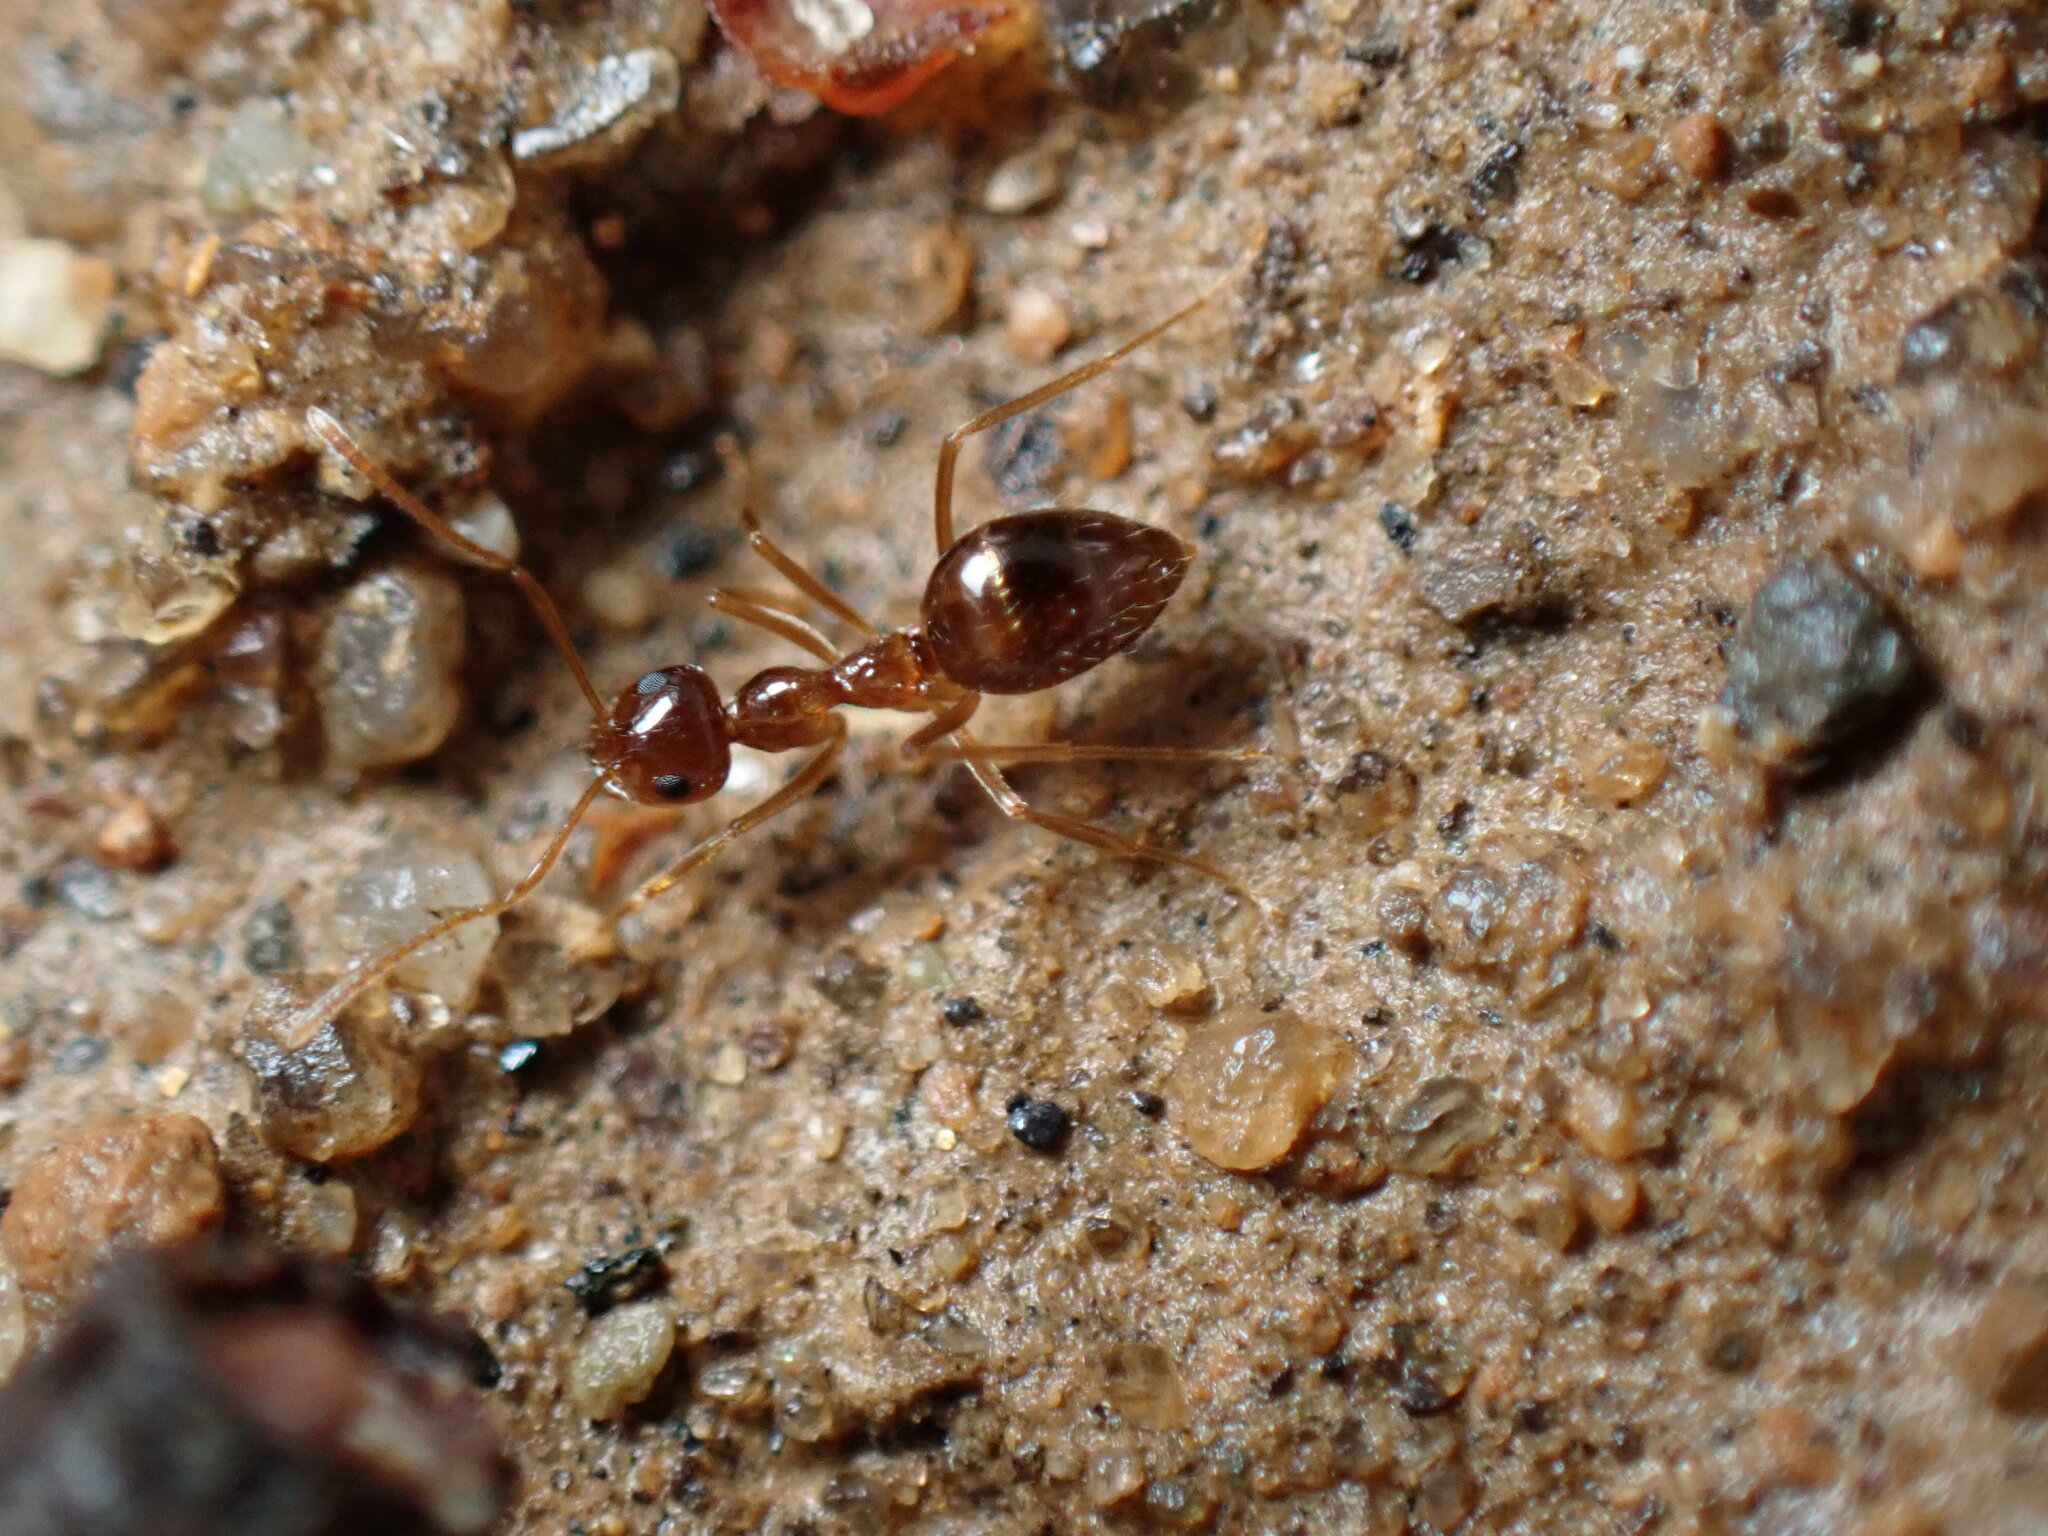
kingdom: Animalia
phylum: Arthropoda
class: Insecta
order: Hymenoptera
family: Formicidae
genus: Prenolepis
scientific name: Prenolepis imparis
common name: Small honey ant
